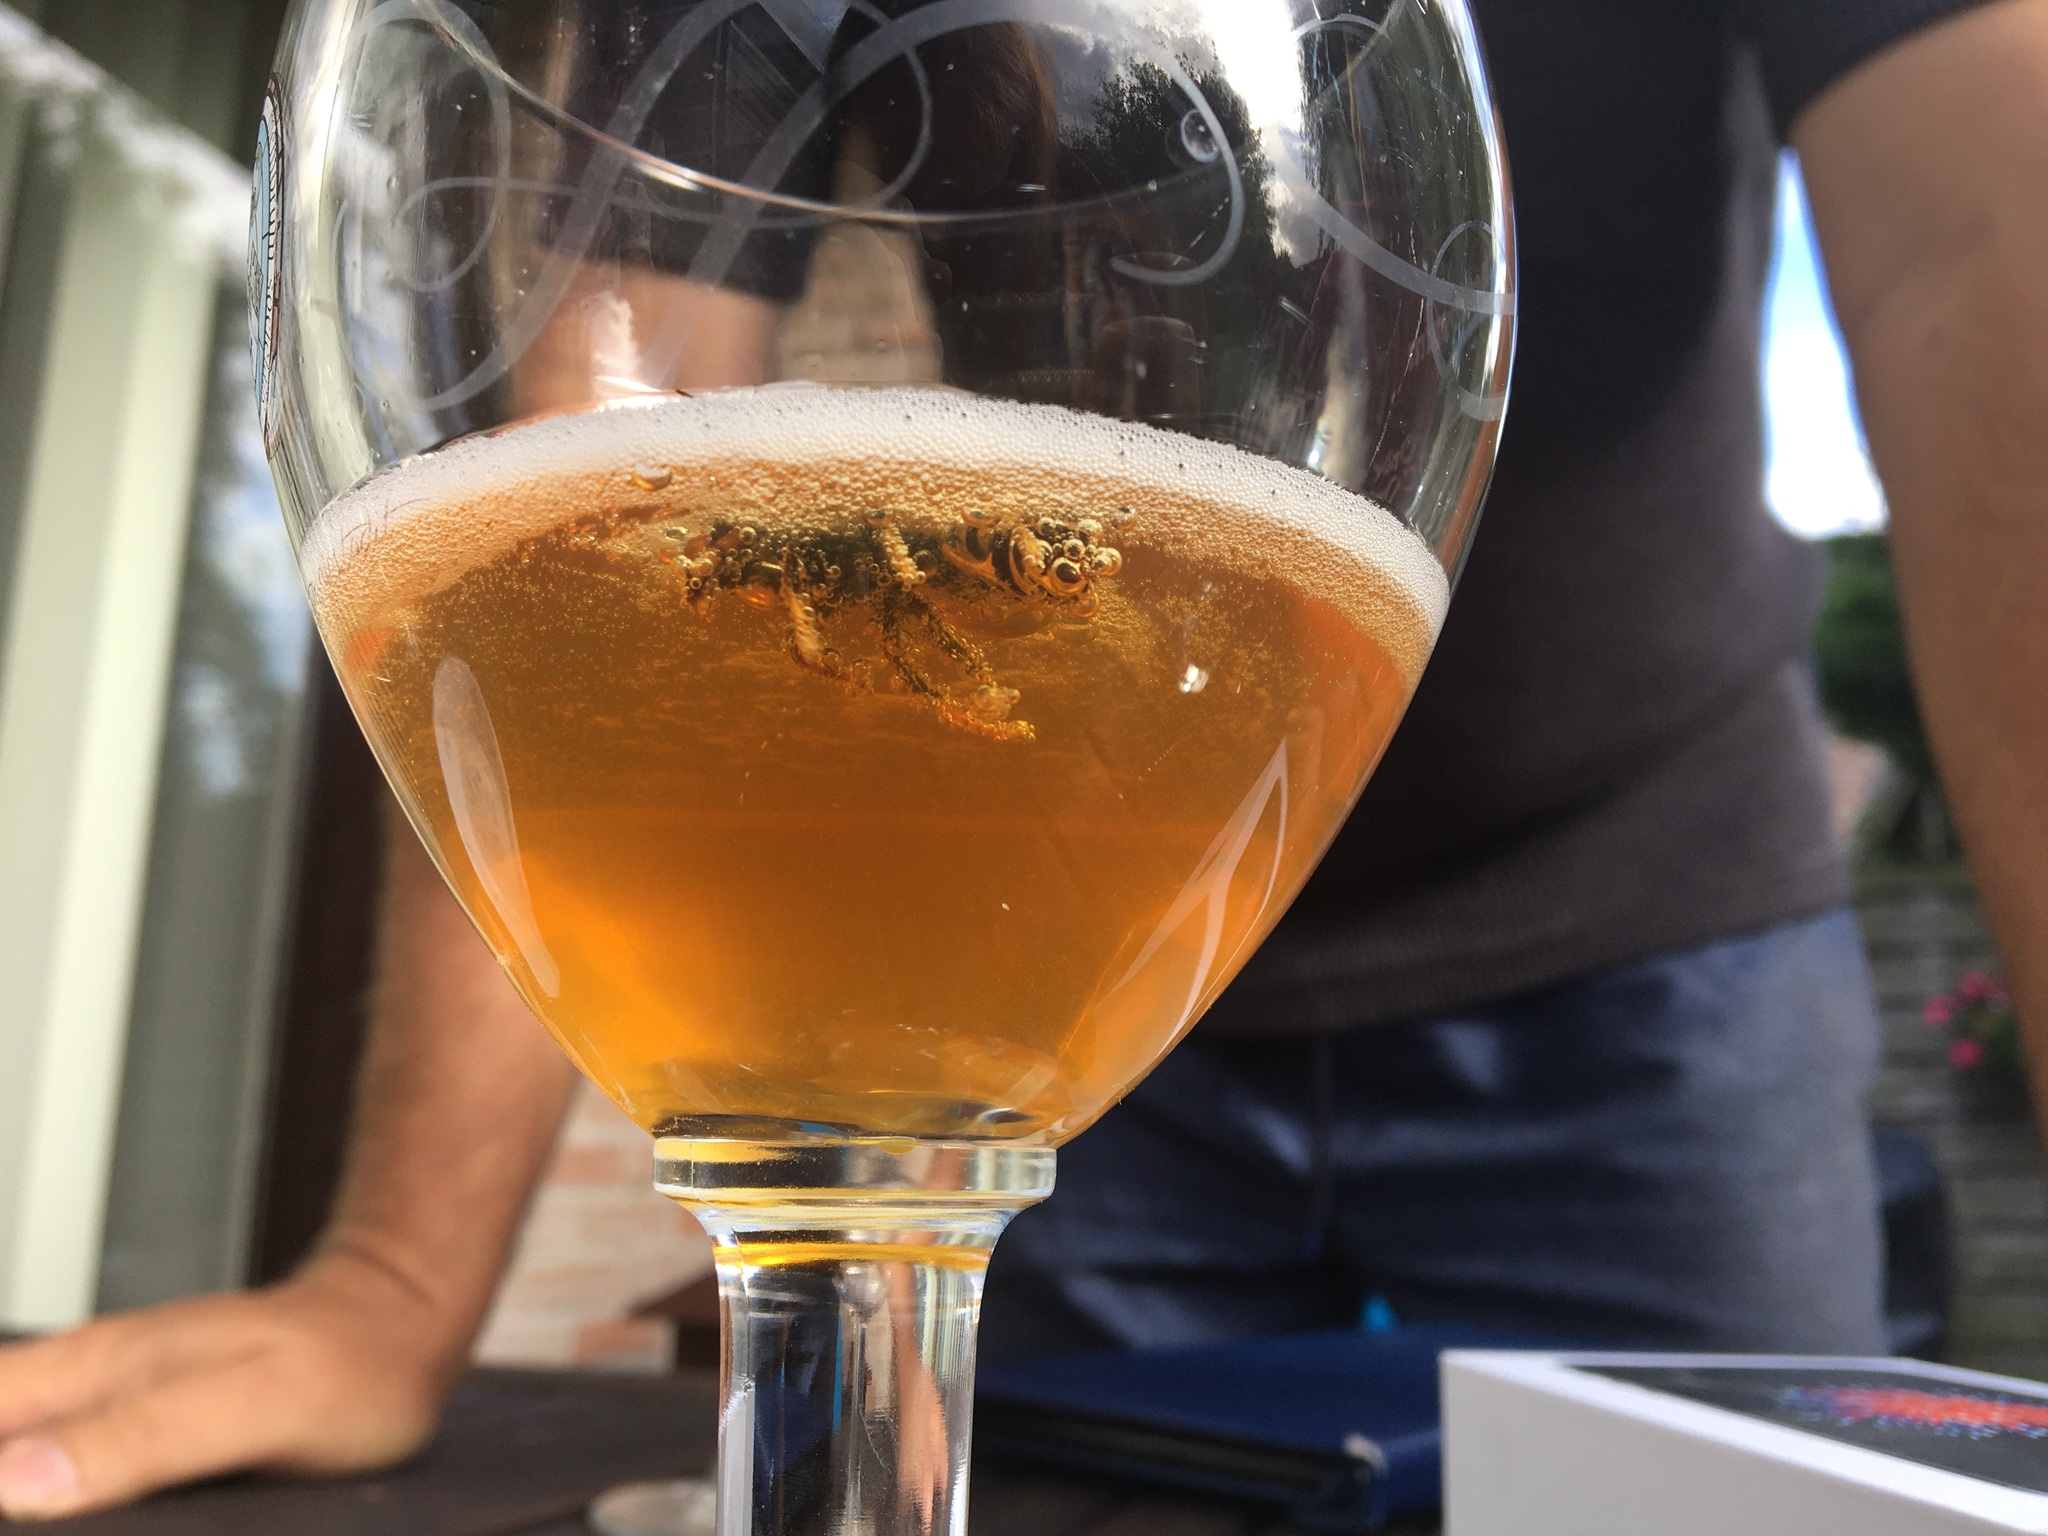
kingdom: Animalia
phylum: Arthropoda
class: Insecta
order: Hymenoptera
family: Vespidae
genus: Vespa
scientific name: Vespa velutina
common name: Asian hornet
